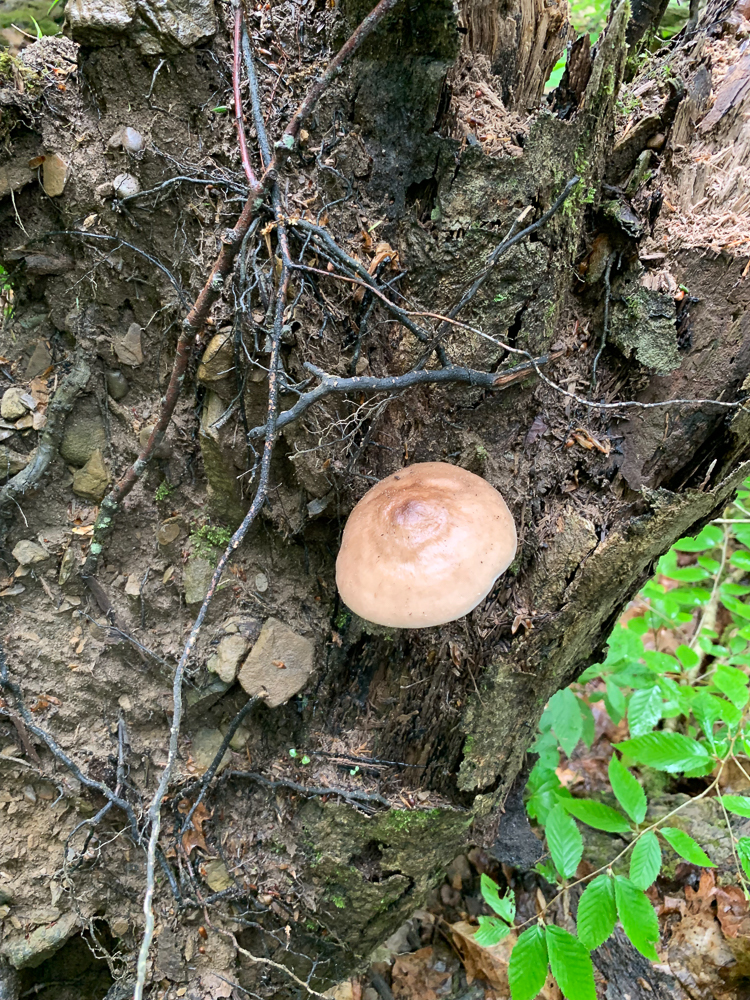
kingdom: Fungi
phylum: Basidiomycota
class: Agaricomycetes
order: Agaricales
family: Pluteaceae
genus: Pluteus
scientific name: Pluteus cervinus
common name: Deer shield
